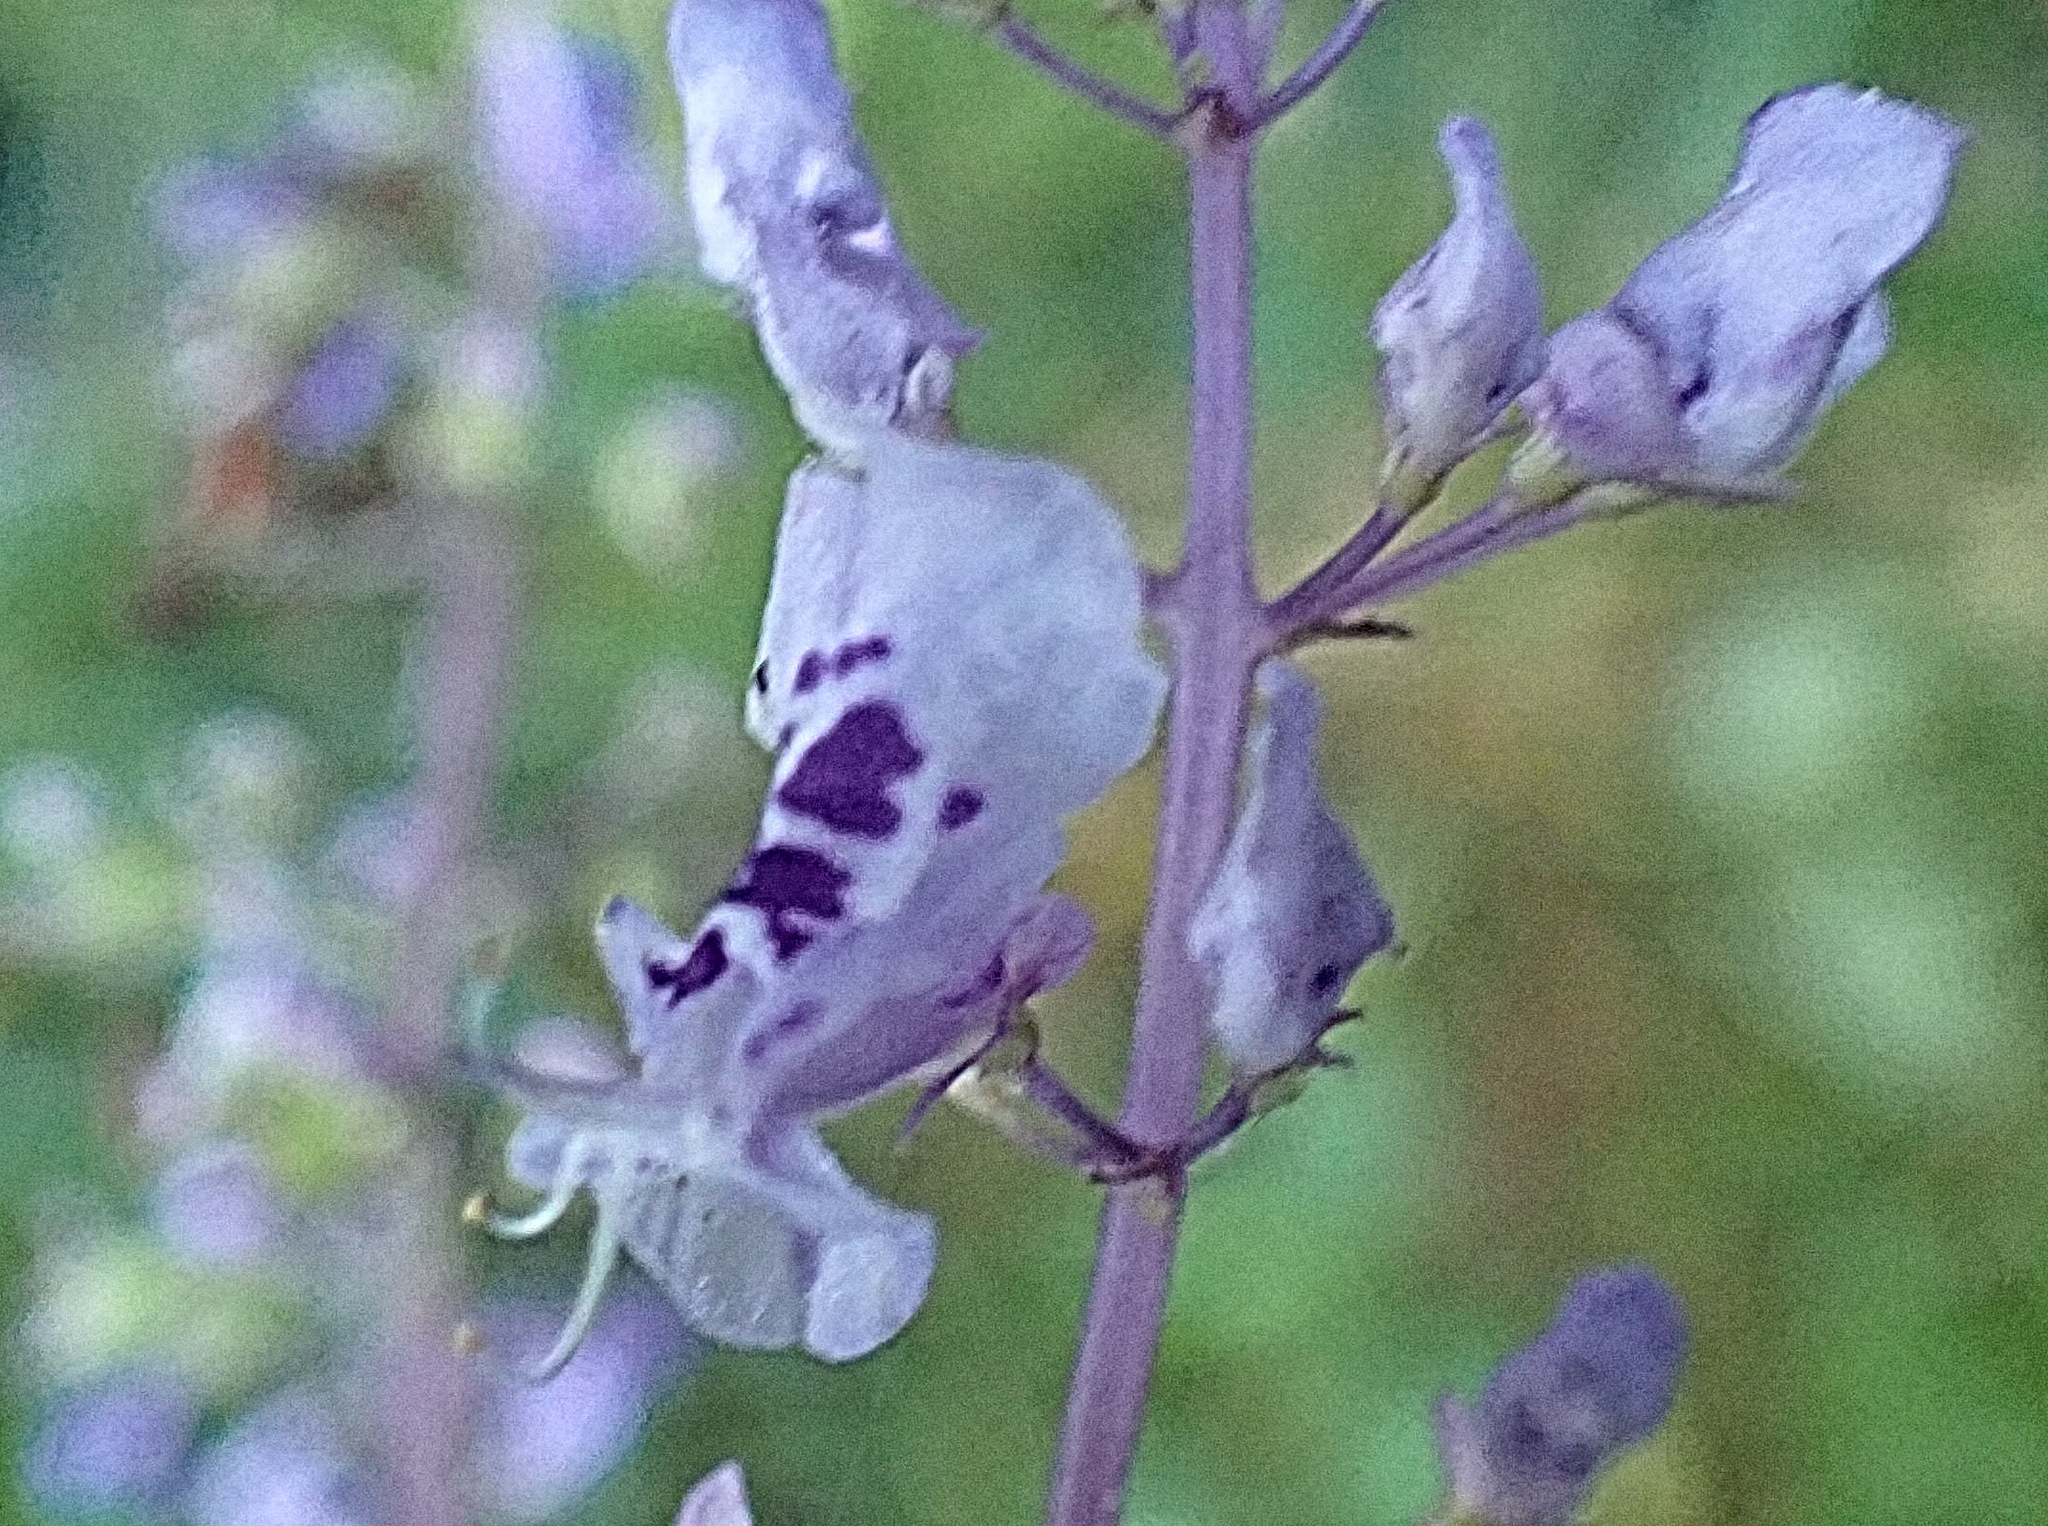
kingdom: Plantae
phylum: Tracheophyta
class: Magnoliopsida
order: Lamiales
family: Lamiaceae
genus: Plectranthus
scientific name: Plectranthus fruticosus
